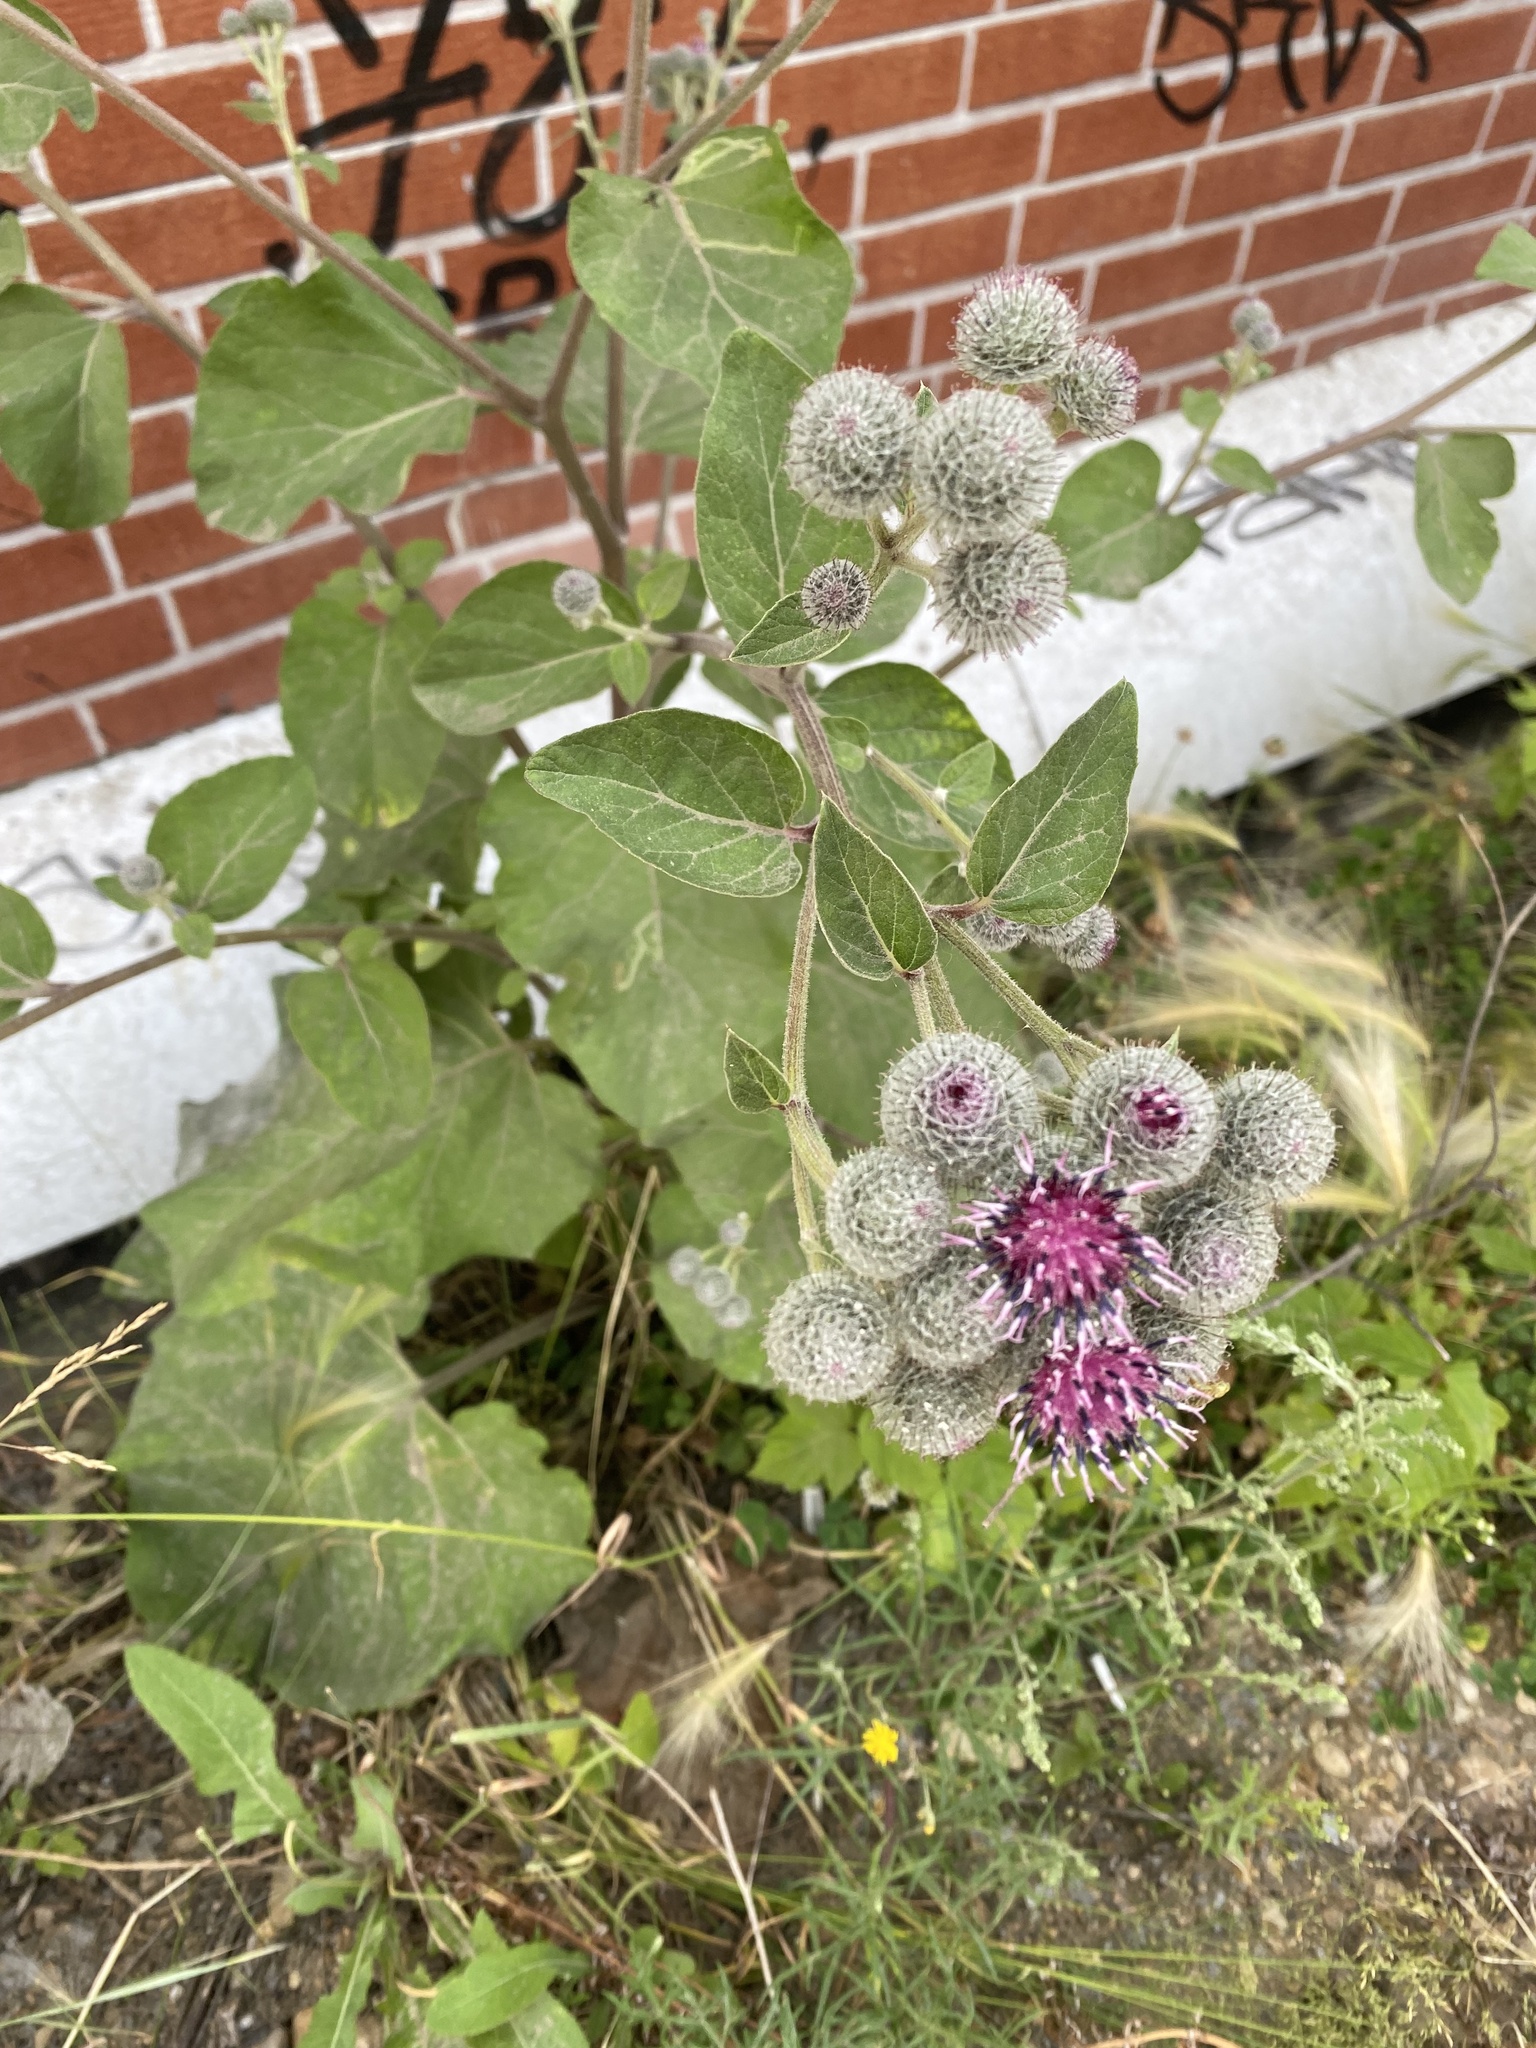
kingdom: Plantae
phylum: Tracheophyta
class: Magnoliopsida
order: Asterales
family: Asteraceae
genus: Arctium
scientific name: Arctium tomentosum
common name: Woolly burdock
